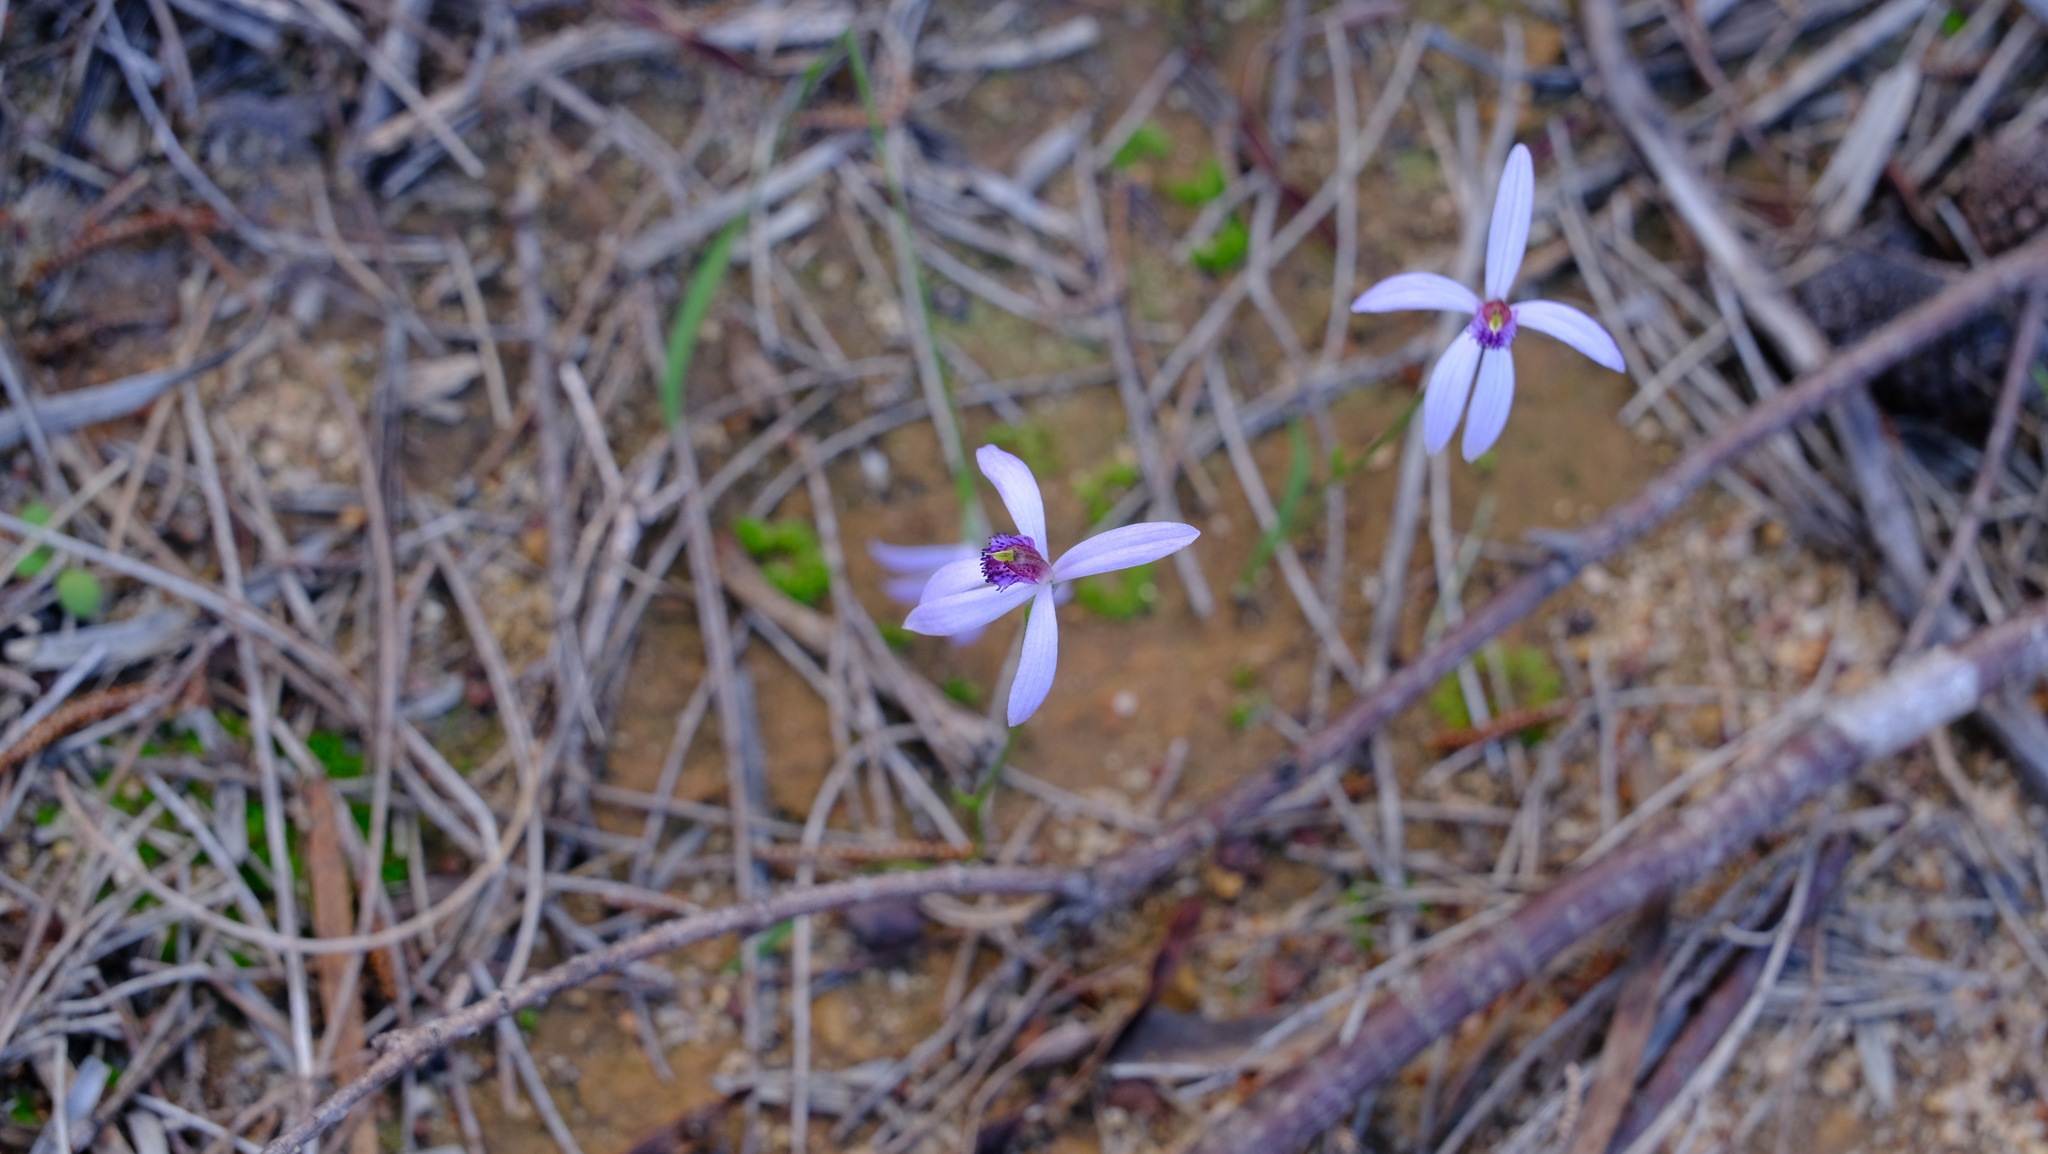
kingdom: Plantae
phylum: Tracheophyta
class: Liliopsida
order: Asparagales
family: Orchidaceae
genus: Pheladenia
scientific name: Pheladenia deformis
